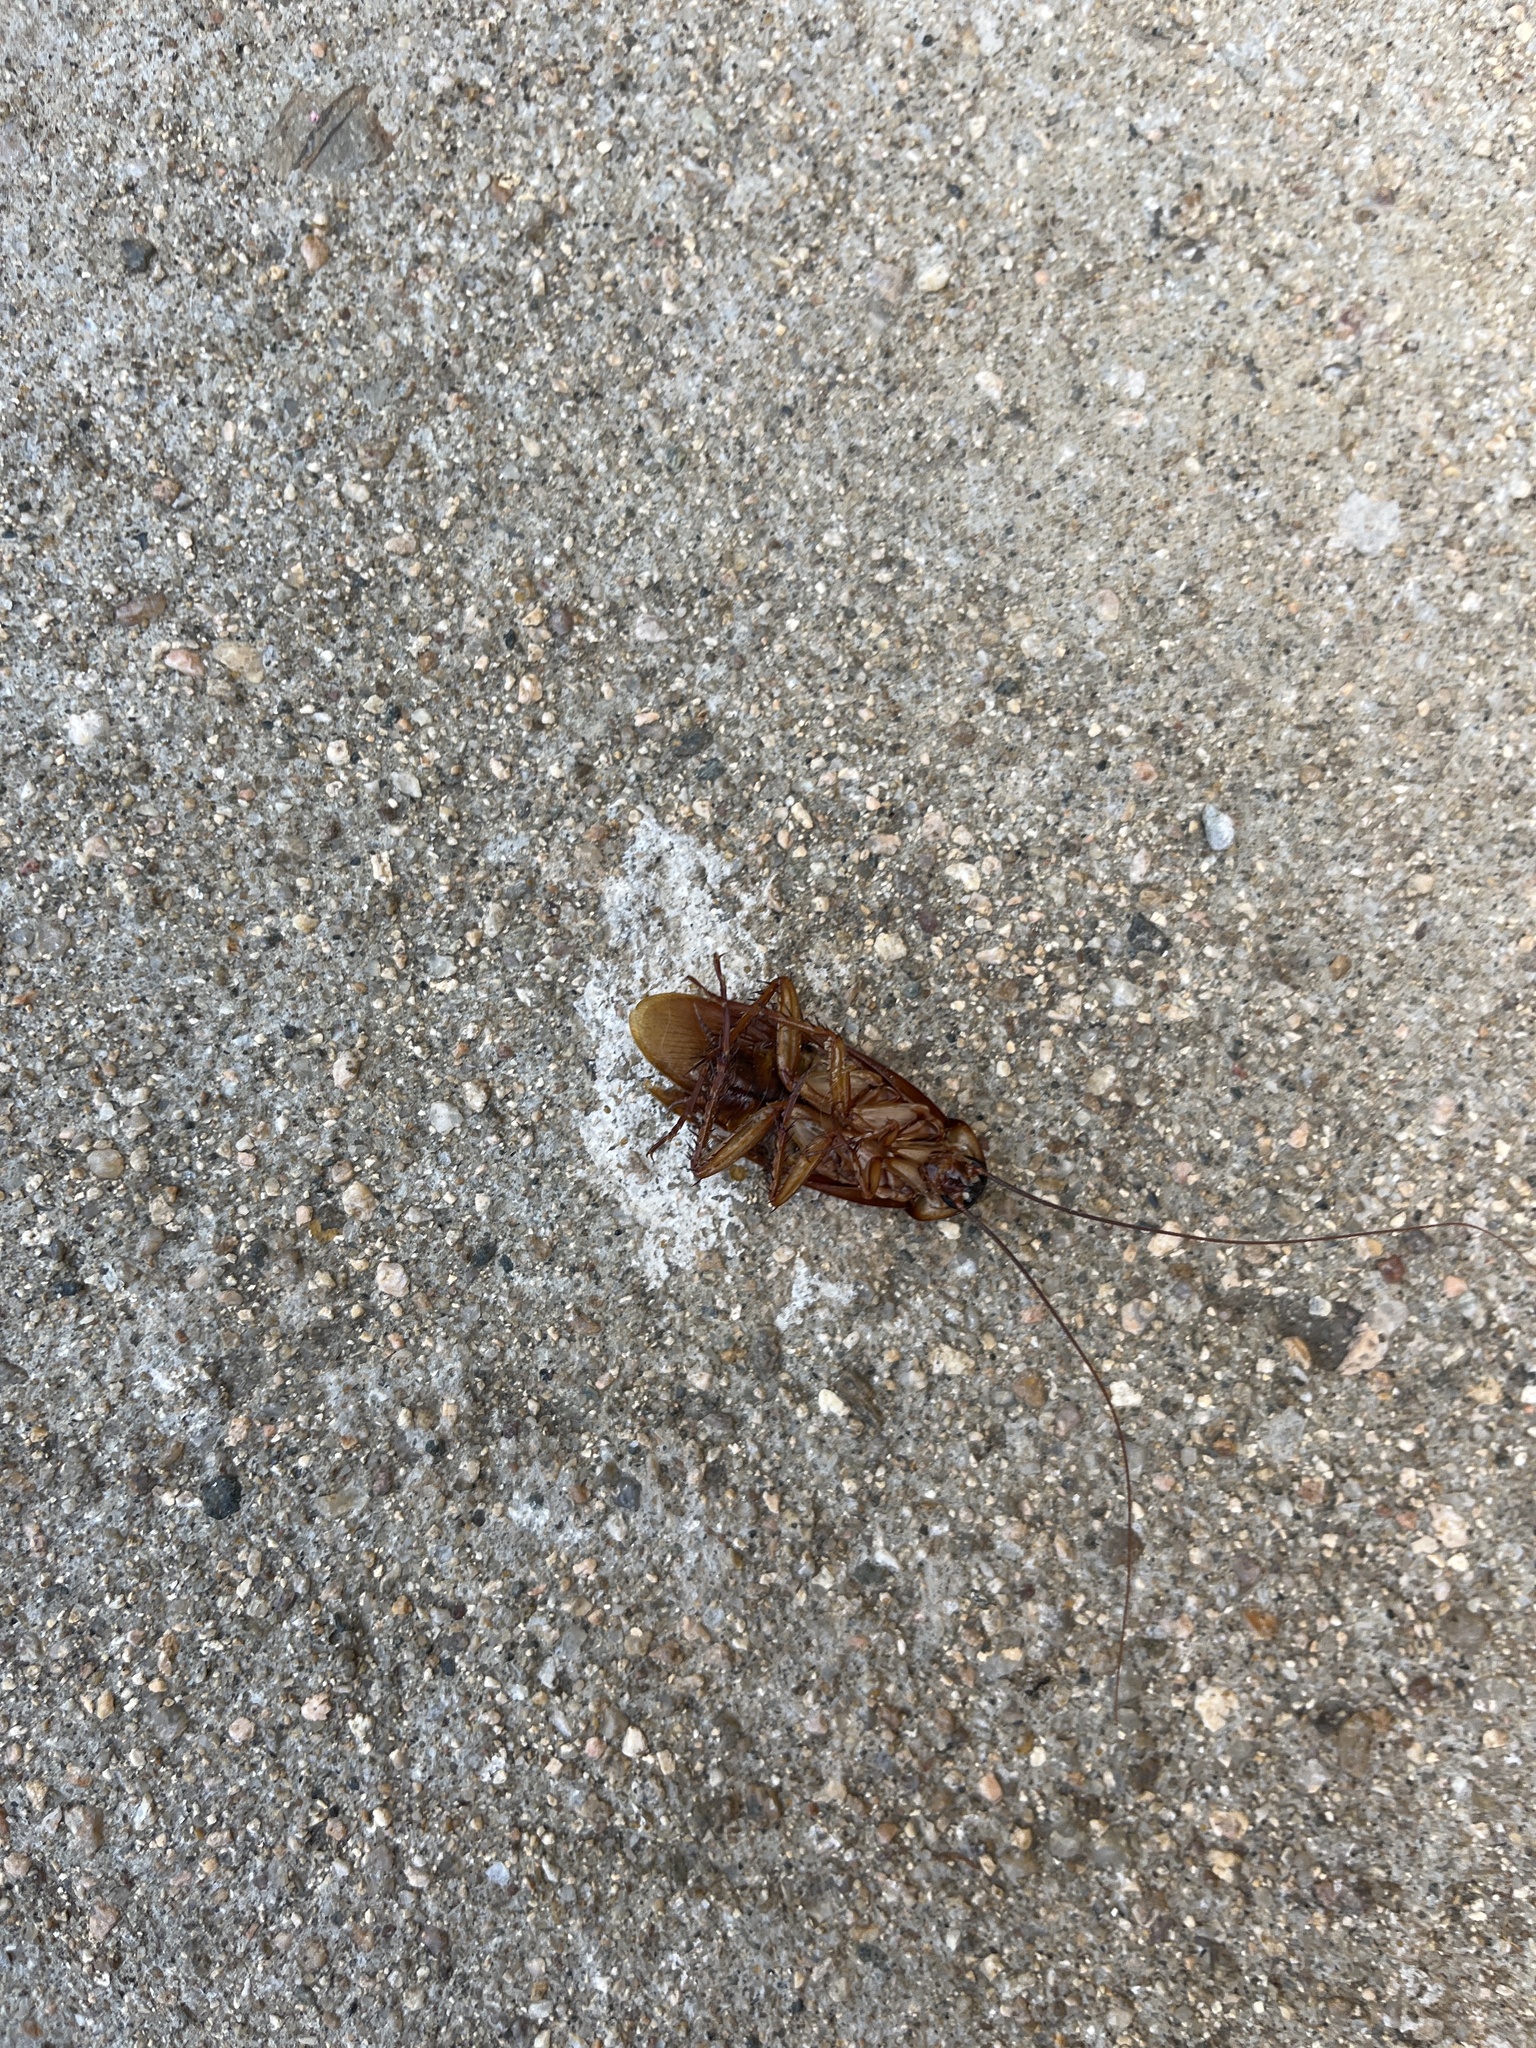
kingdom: Animalia
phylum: Arthropoda
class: Insecta
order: Blattodea
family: Blattidae
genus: Periplaneta
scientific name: Periplaneta americana
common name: American cockroach
